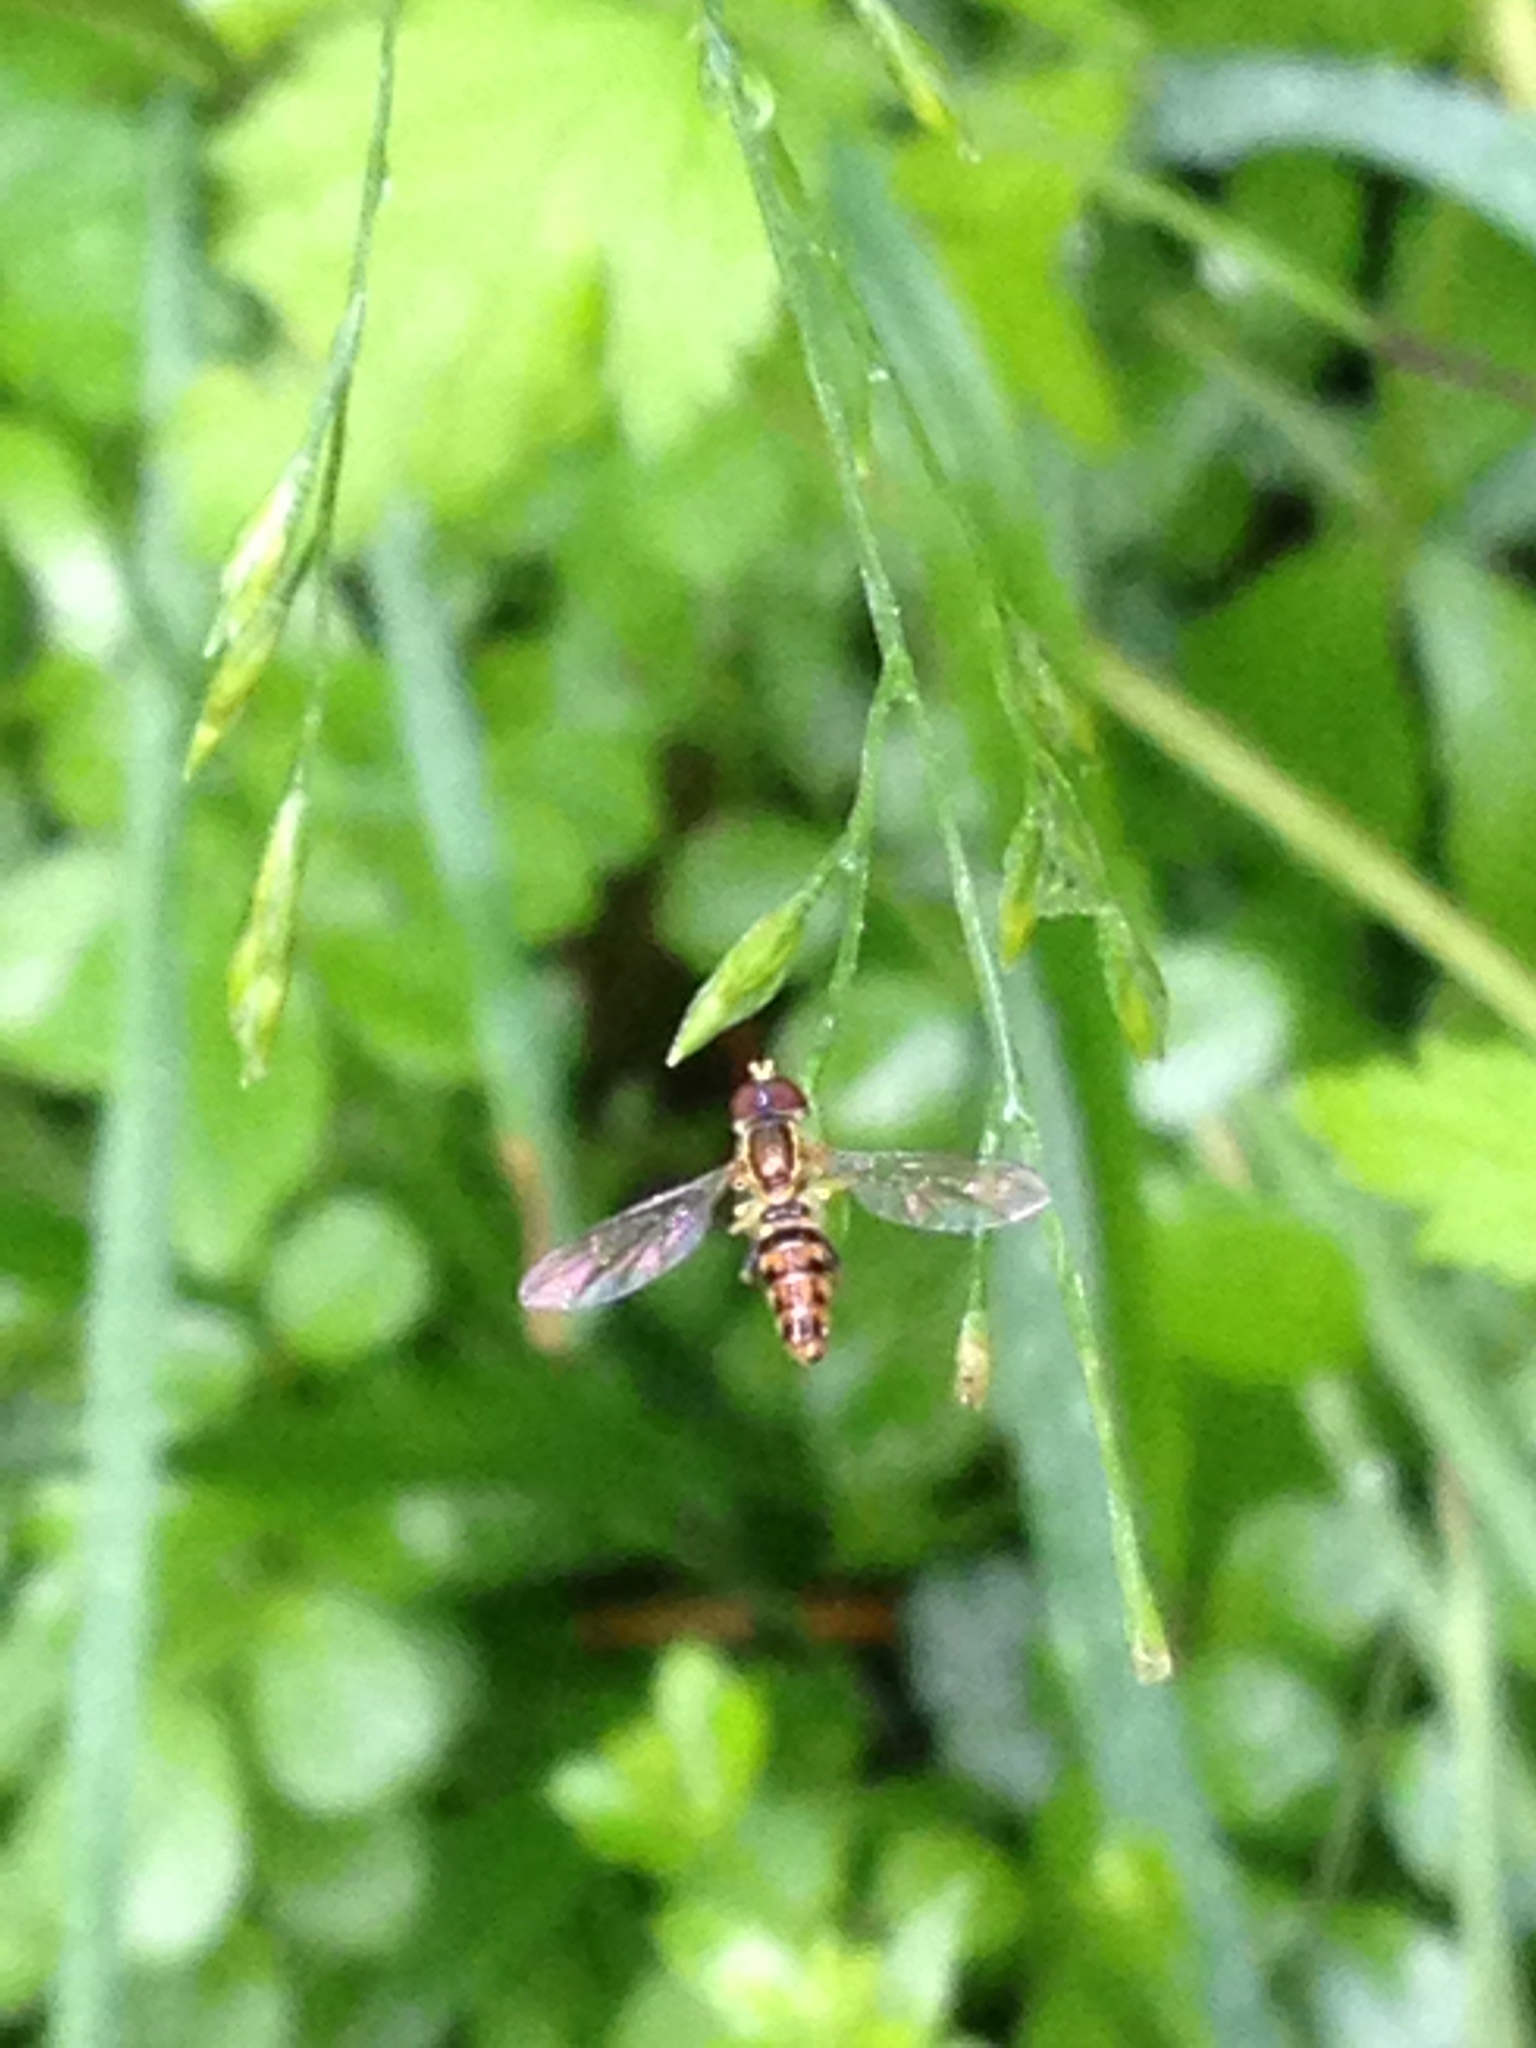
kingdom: Animalia
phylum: Arthropoda
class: Insecta
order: Diptera
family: Syrphidae
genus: Toxomerus
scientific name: Toxomerus geminatus
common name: Eastern calligrapher
